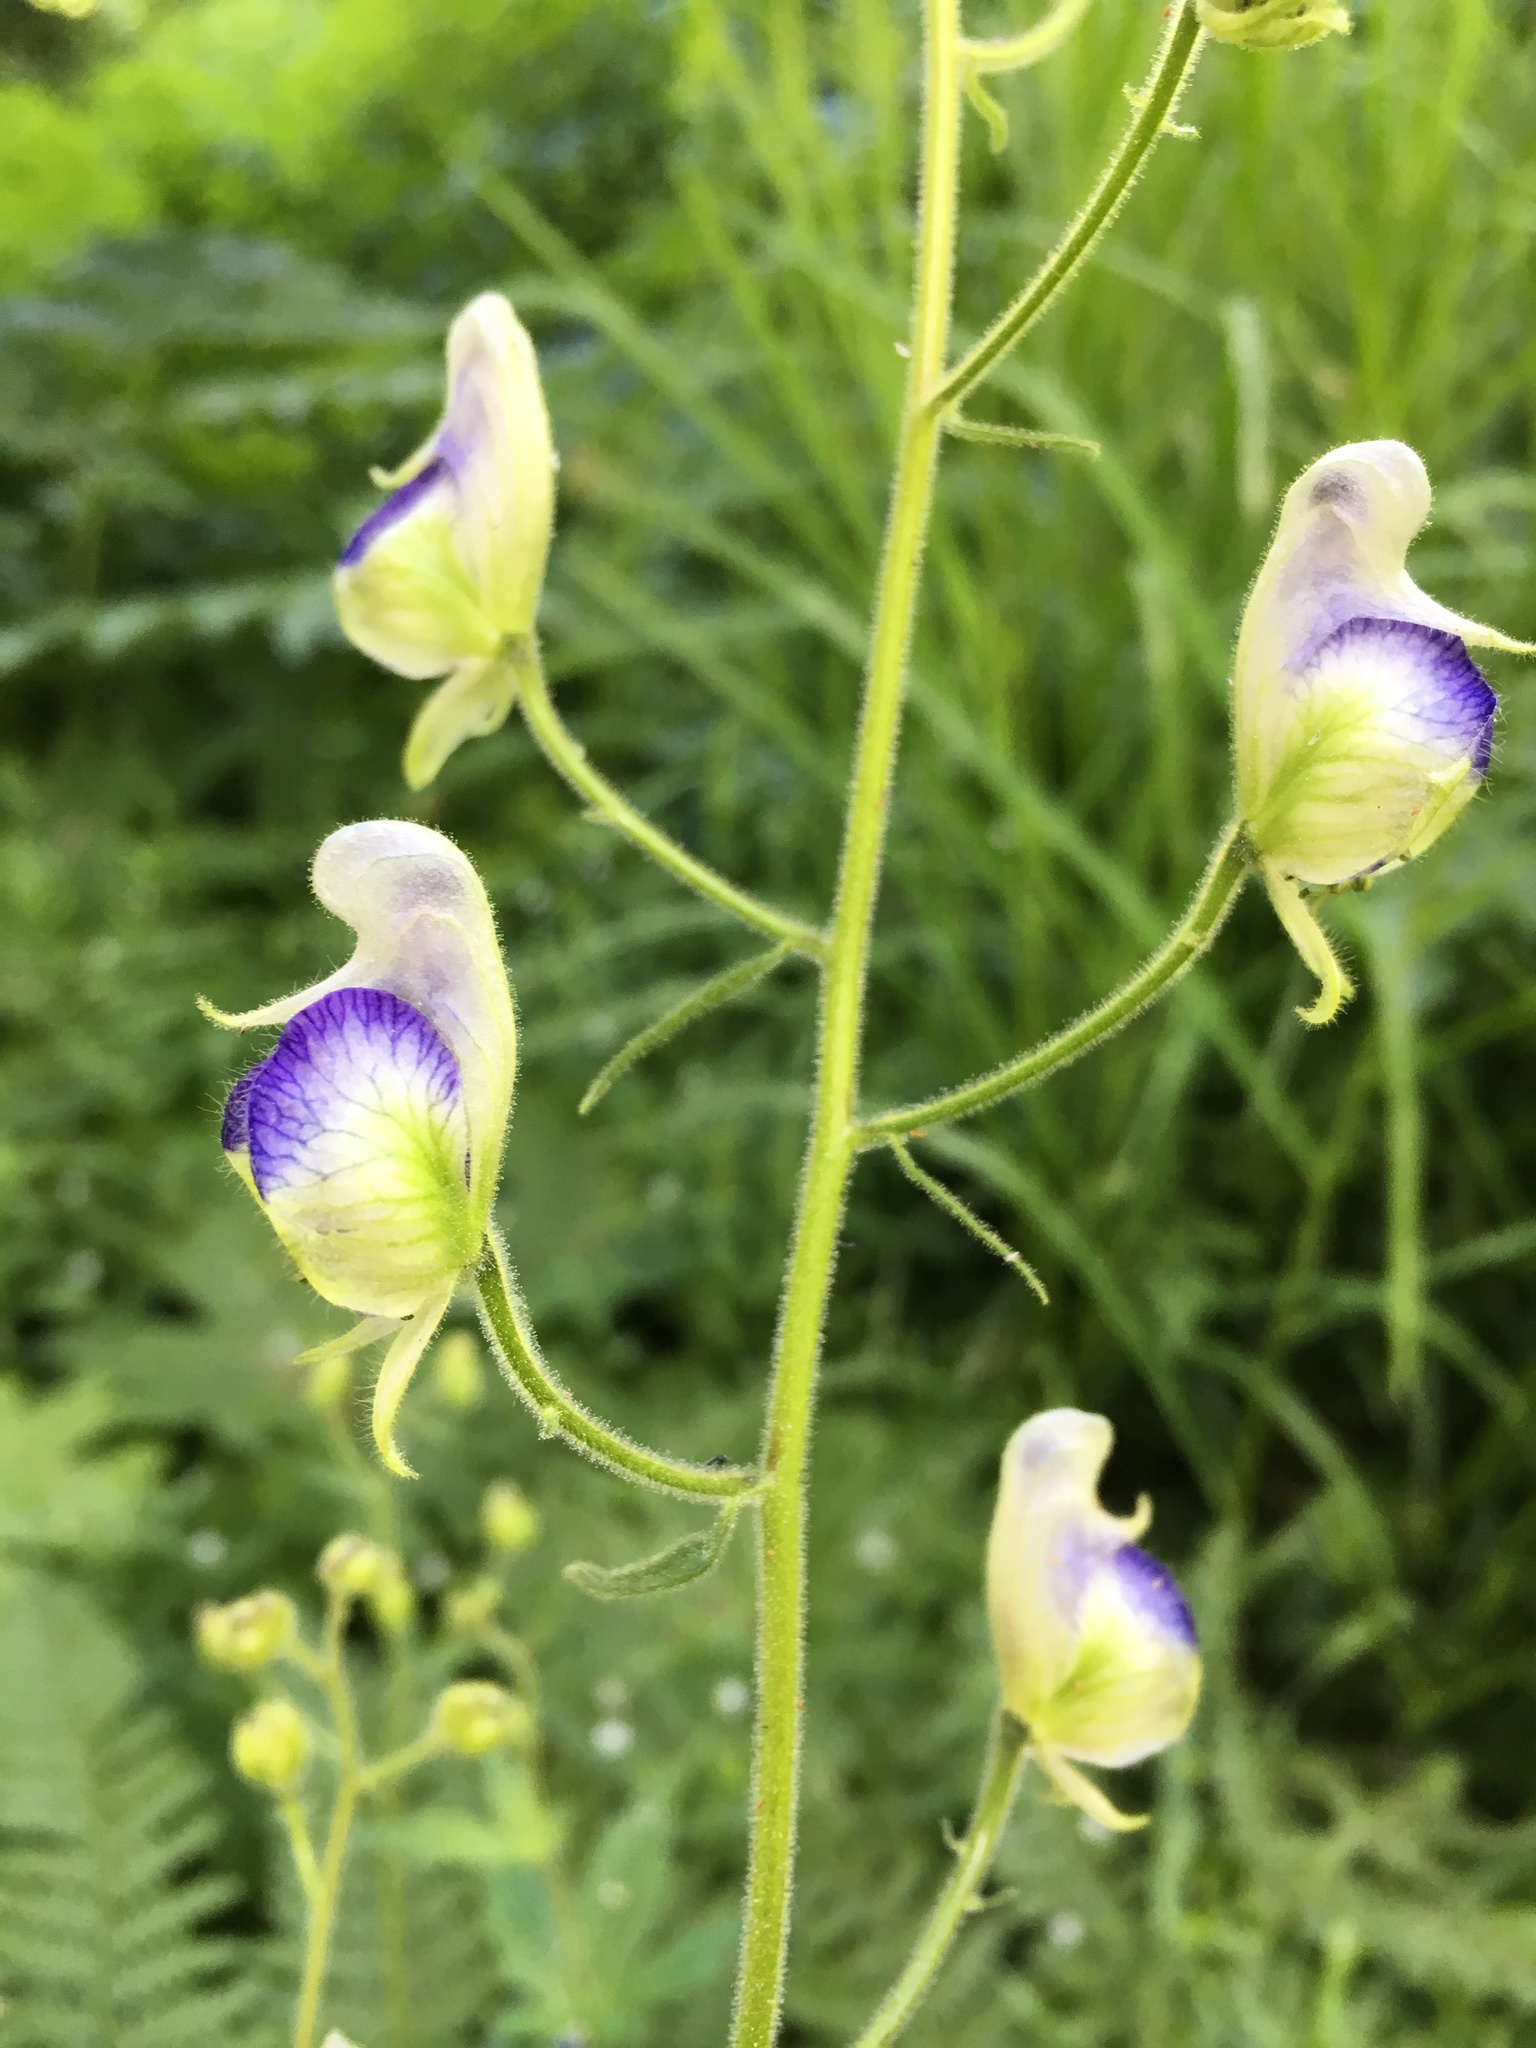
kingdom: Plantae
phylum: Tracheophyta
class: Magnoliopsida
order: Ranunculales
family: Ranunculaceae
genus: Aconitum
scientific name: Aconitum columbianum
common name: Columbia aconite
